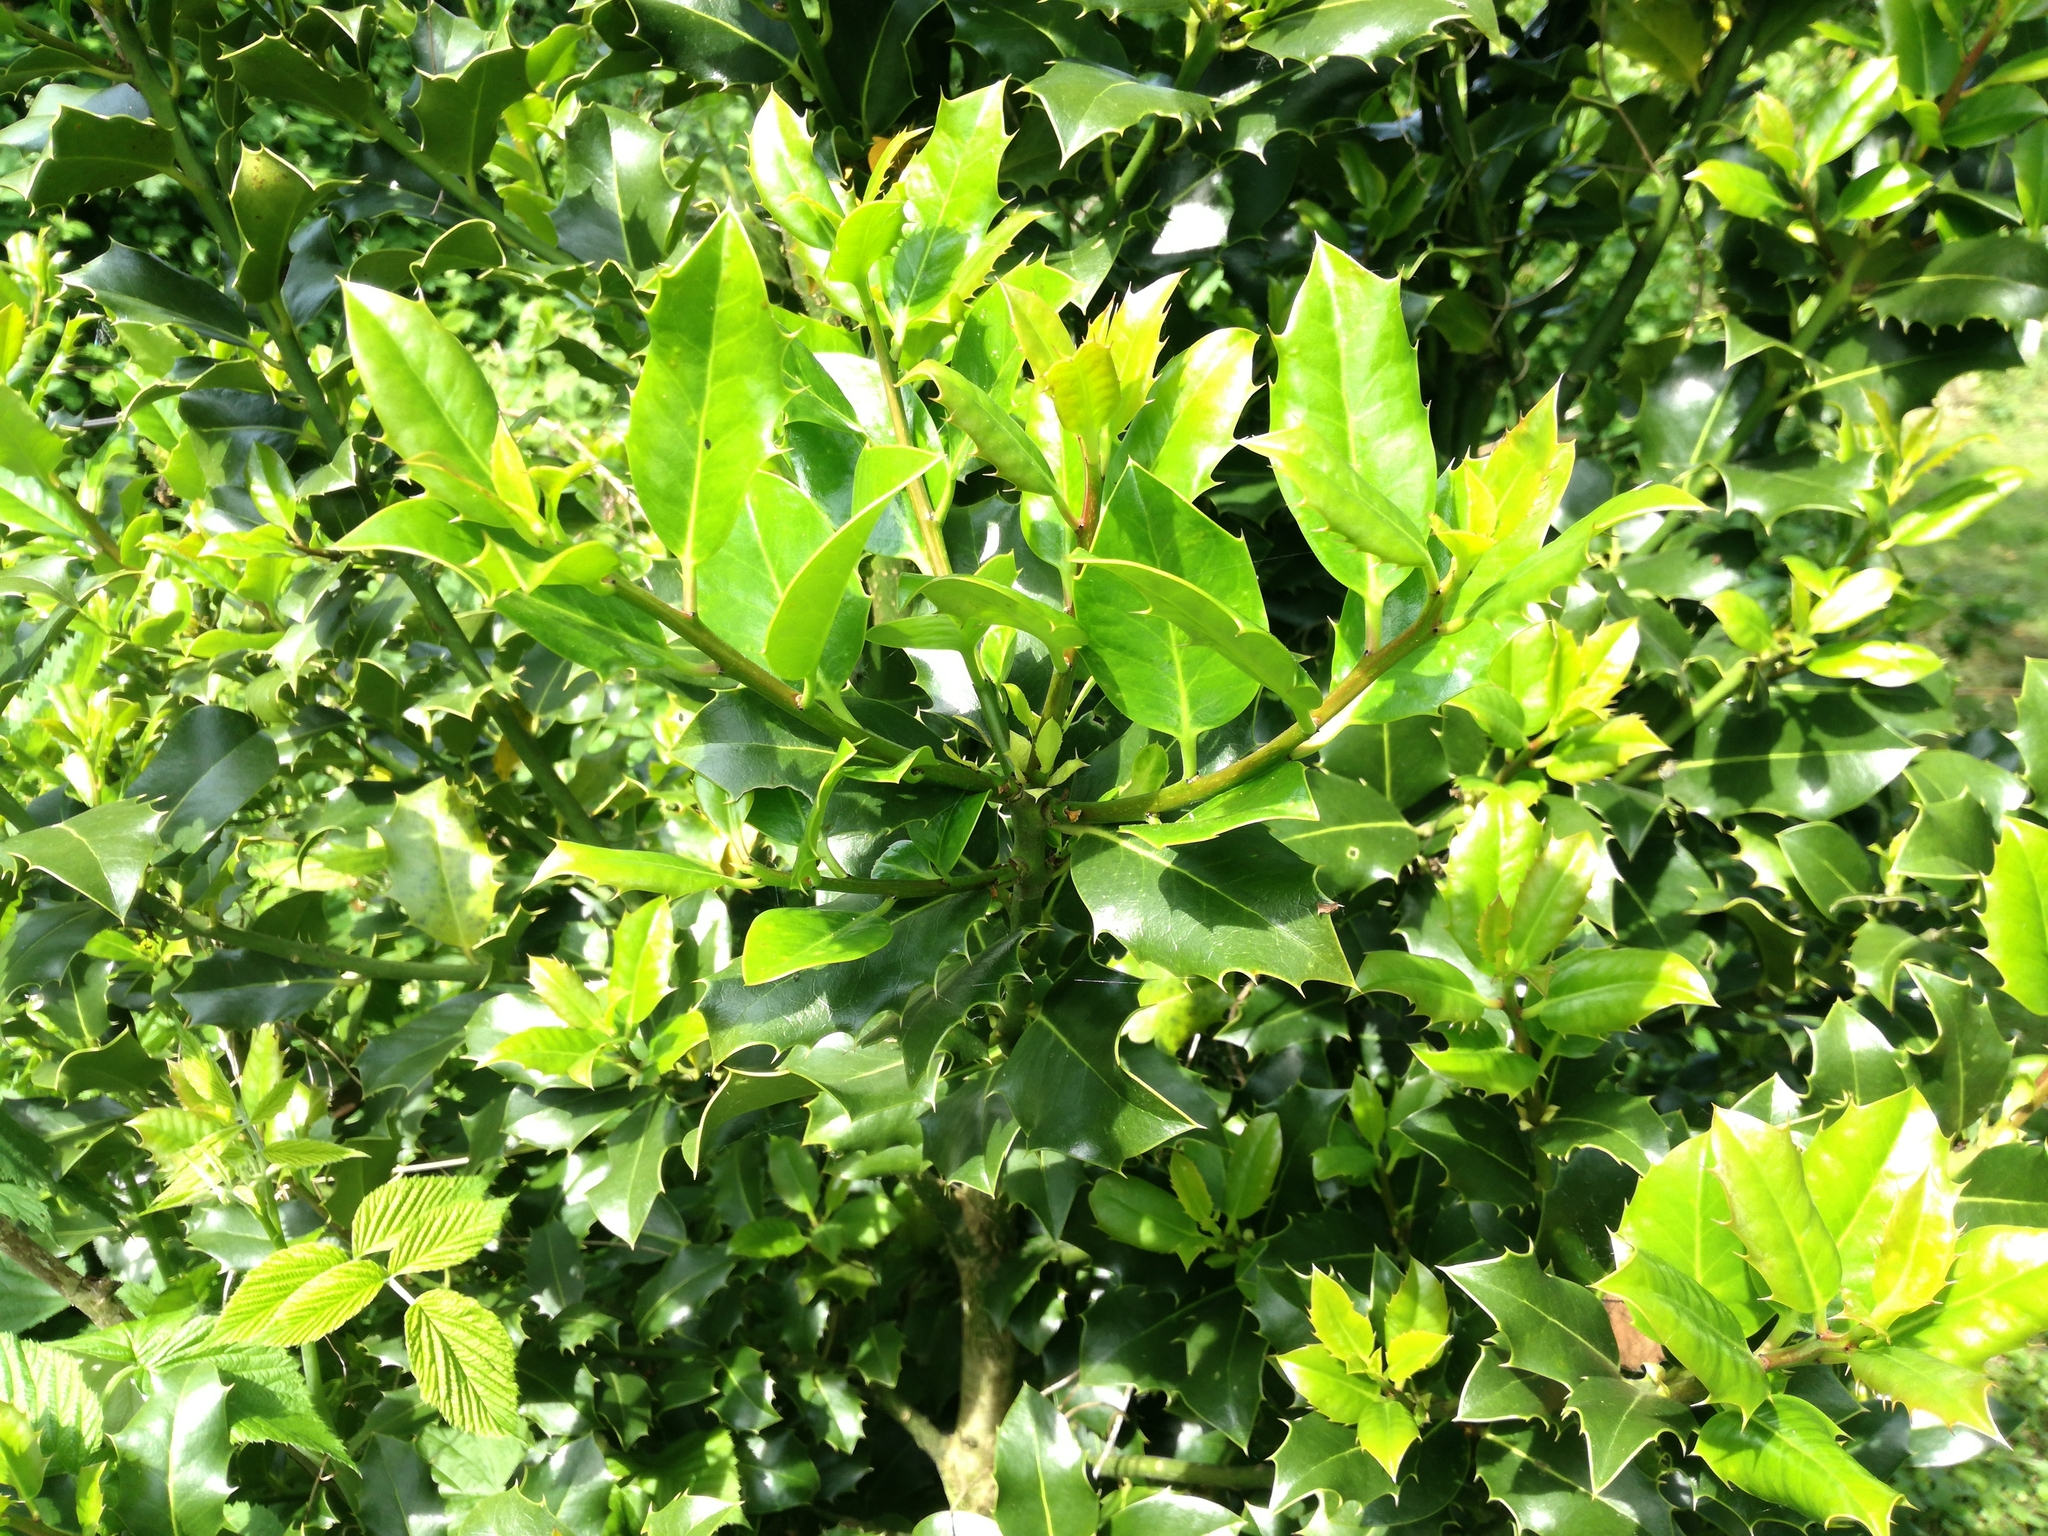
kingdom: Plantae
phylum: Tracheophyta
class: Magnoliopsida
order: Aquifoliales
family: Aquifoliaceae
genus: Ilex
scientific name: Ilex aquifolium
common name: English holly
